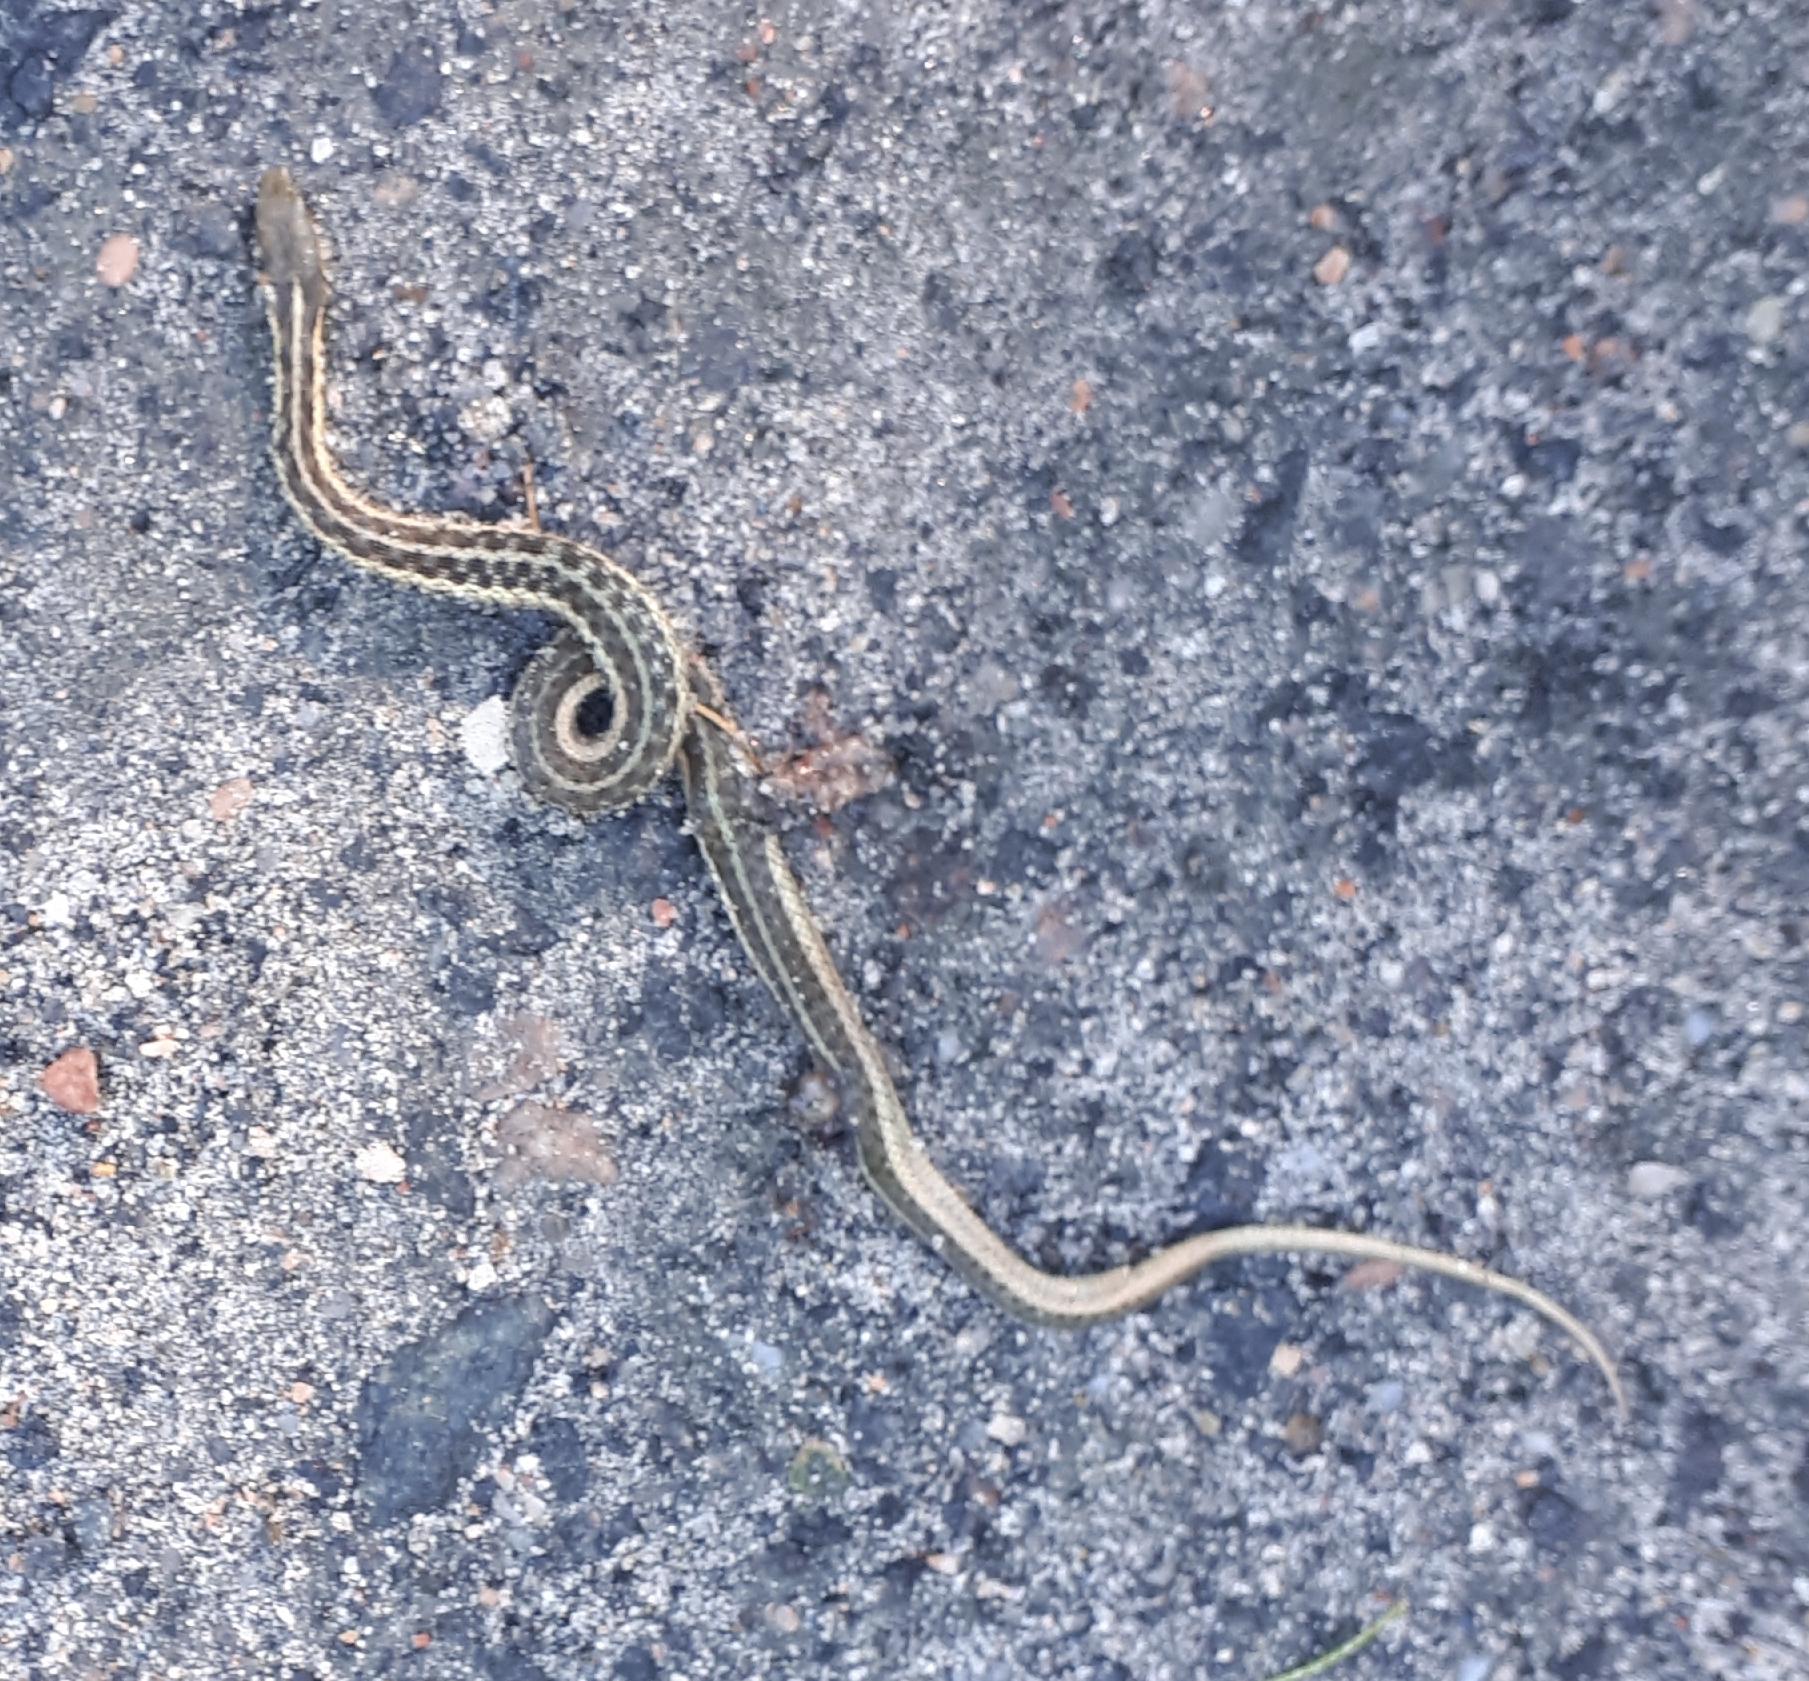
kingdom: Animalia
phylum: Chordata
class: Squamata
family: Colubridae
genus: Thamnophis
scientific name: Thamnophis sirtalis
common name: Common garter snake
